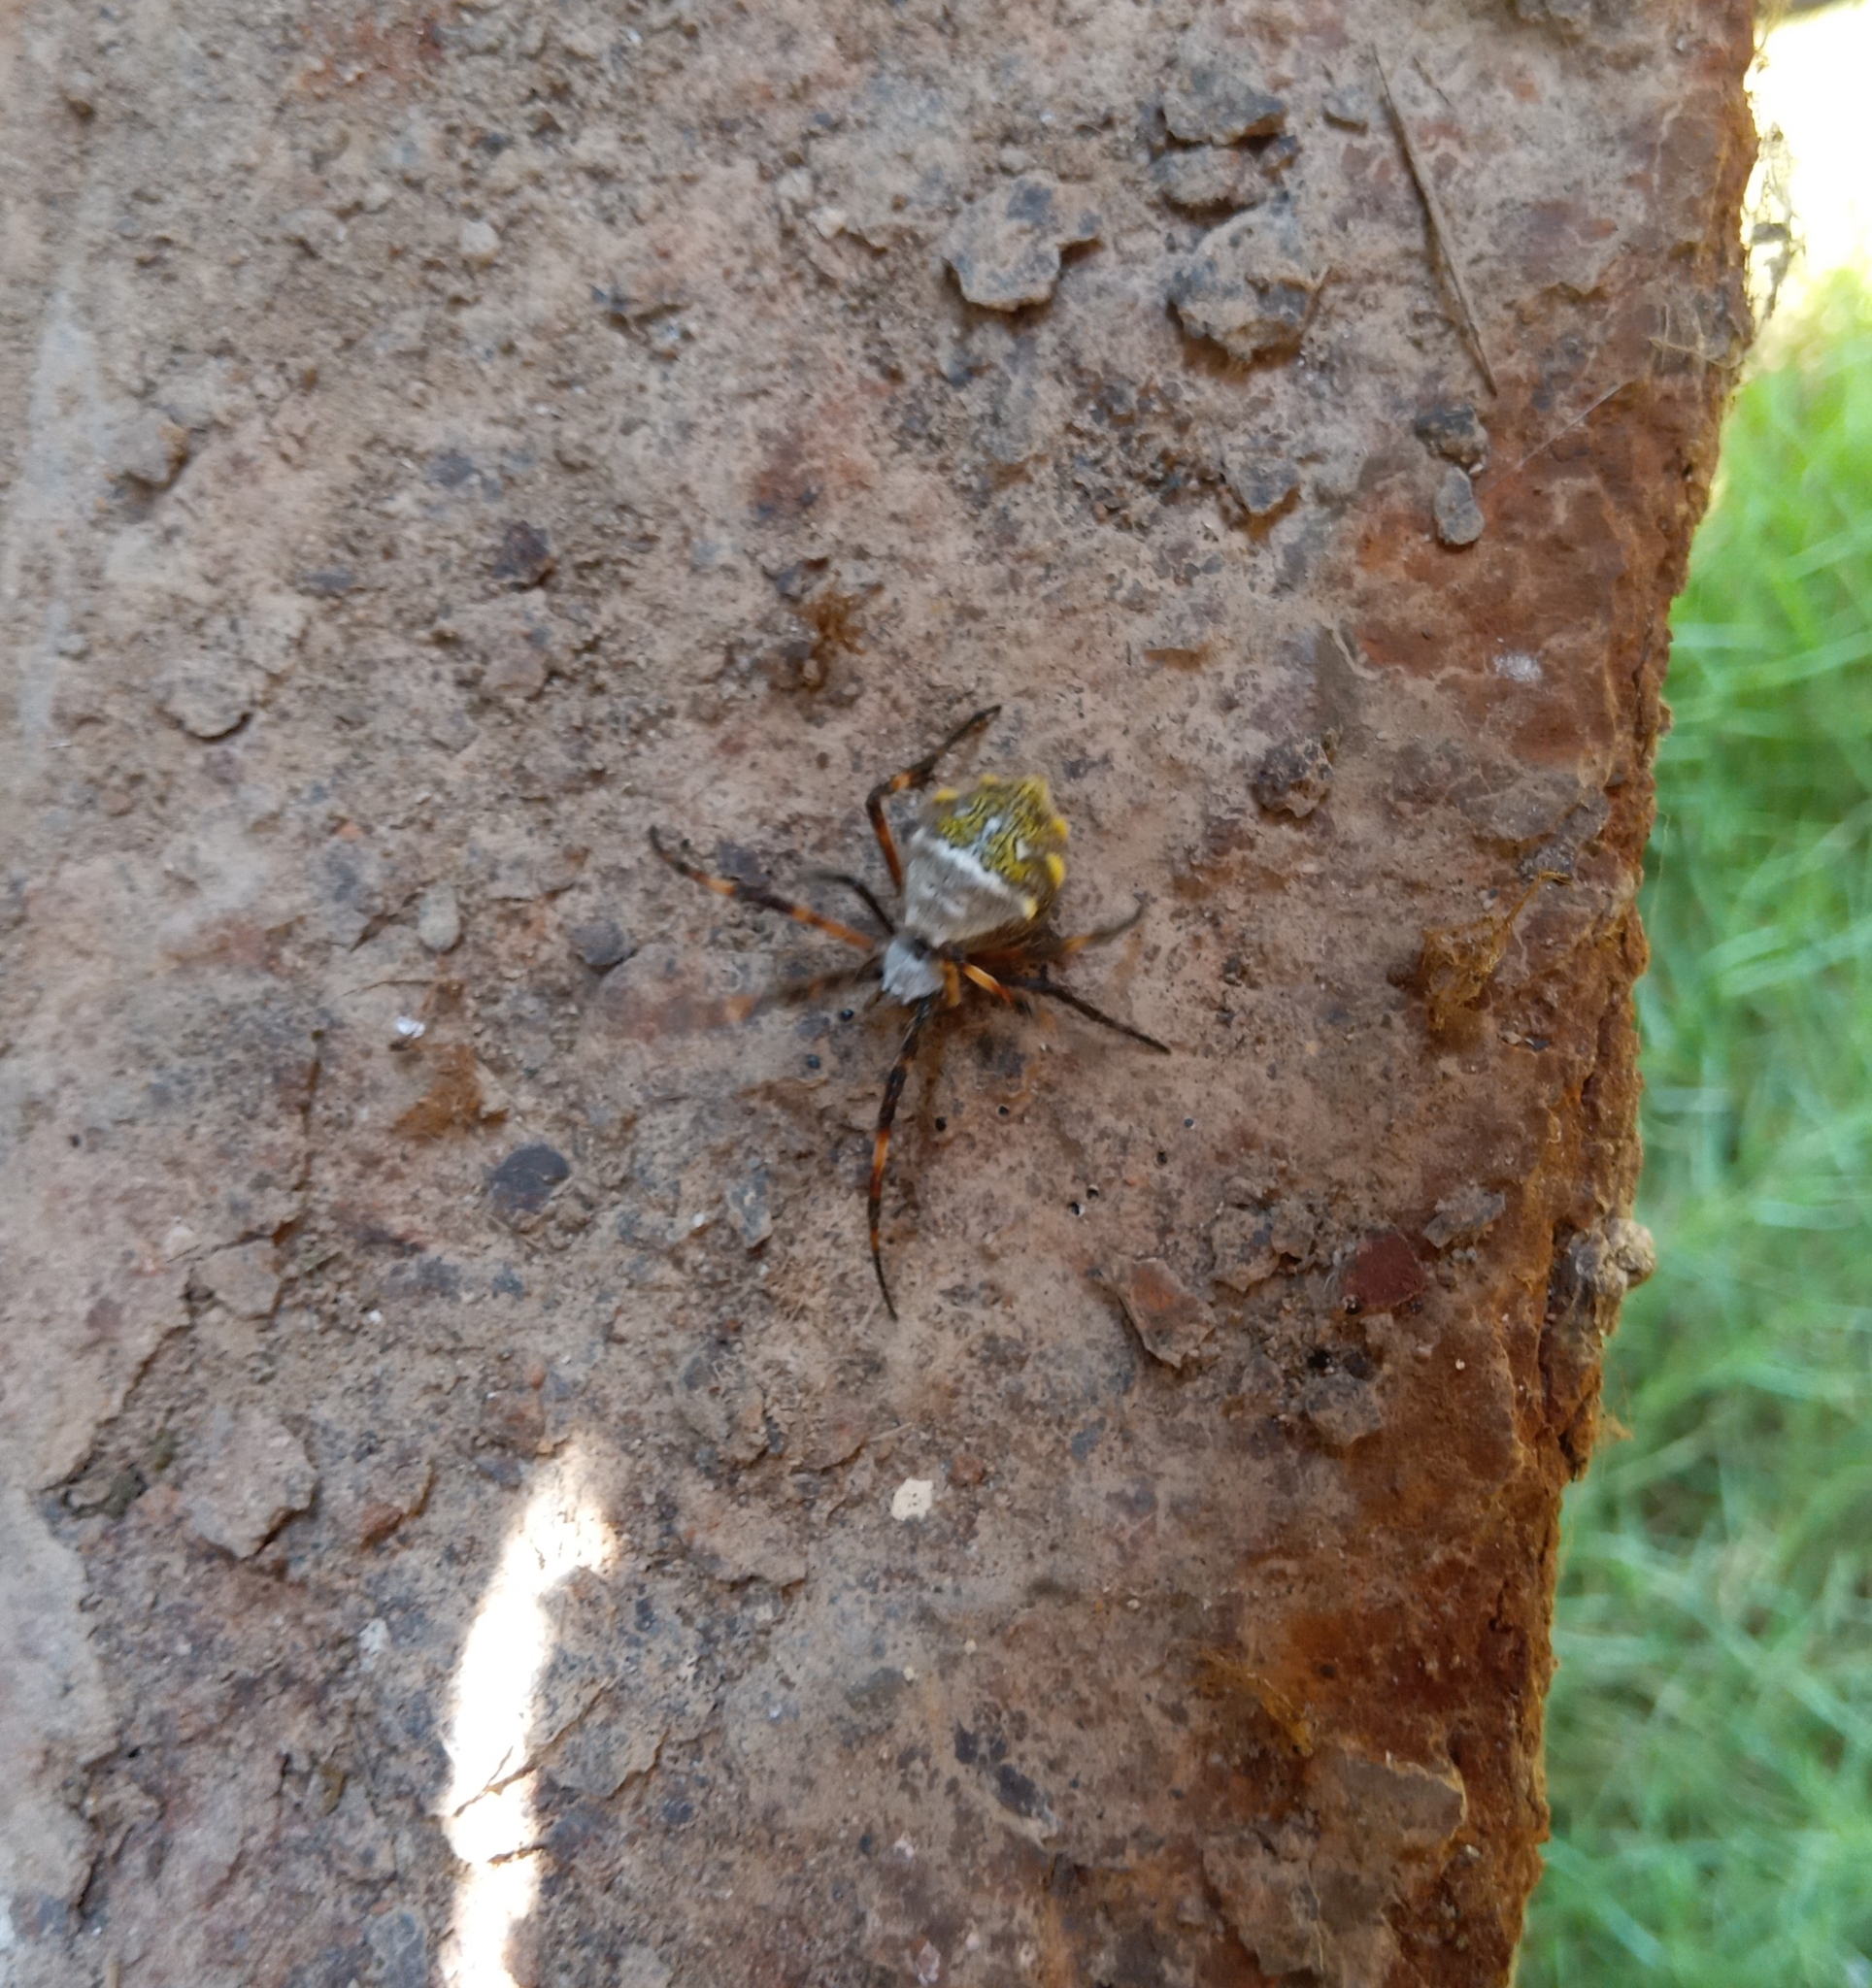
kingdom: Animalia
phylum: Arthropoda
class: Arachnida
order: Araneae
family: Araneidae
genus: Argiope
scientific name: Argiope argentata
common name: Orb weavers
